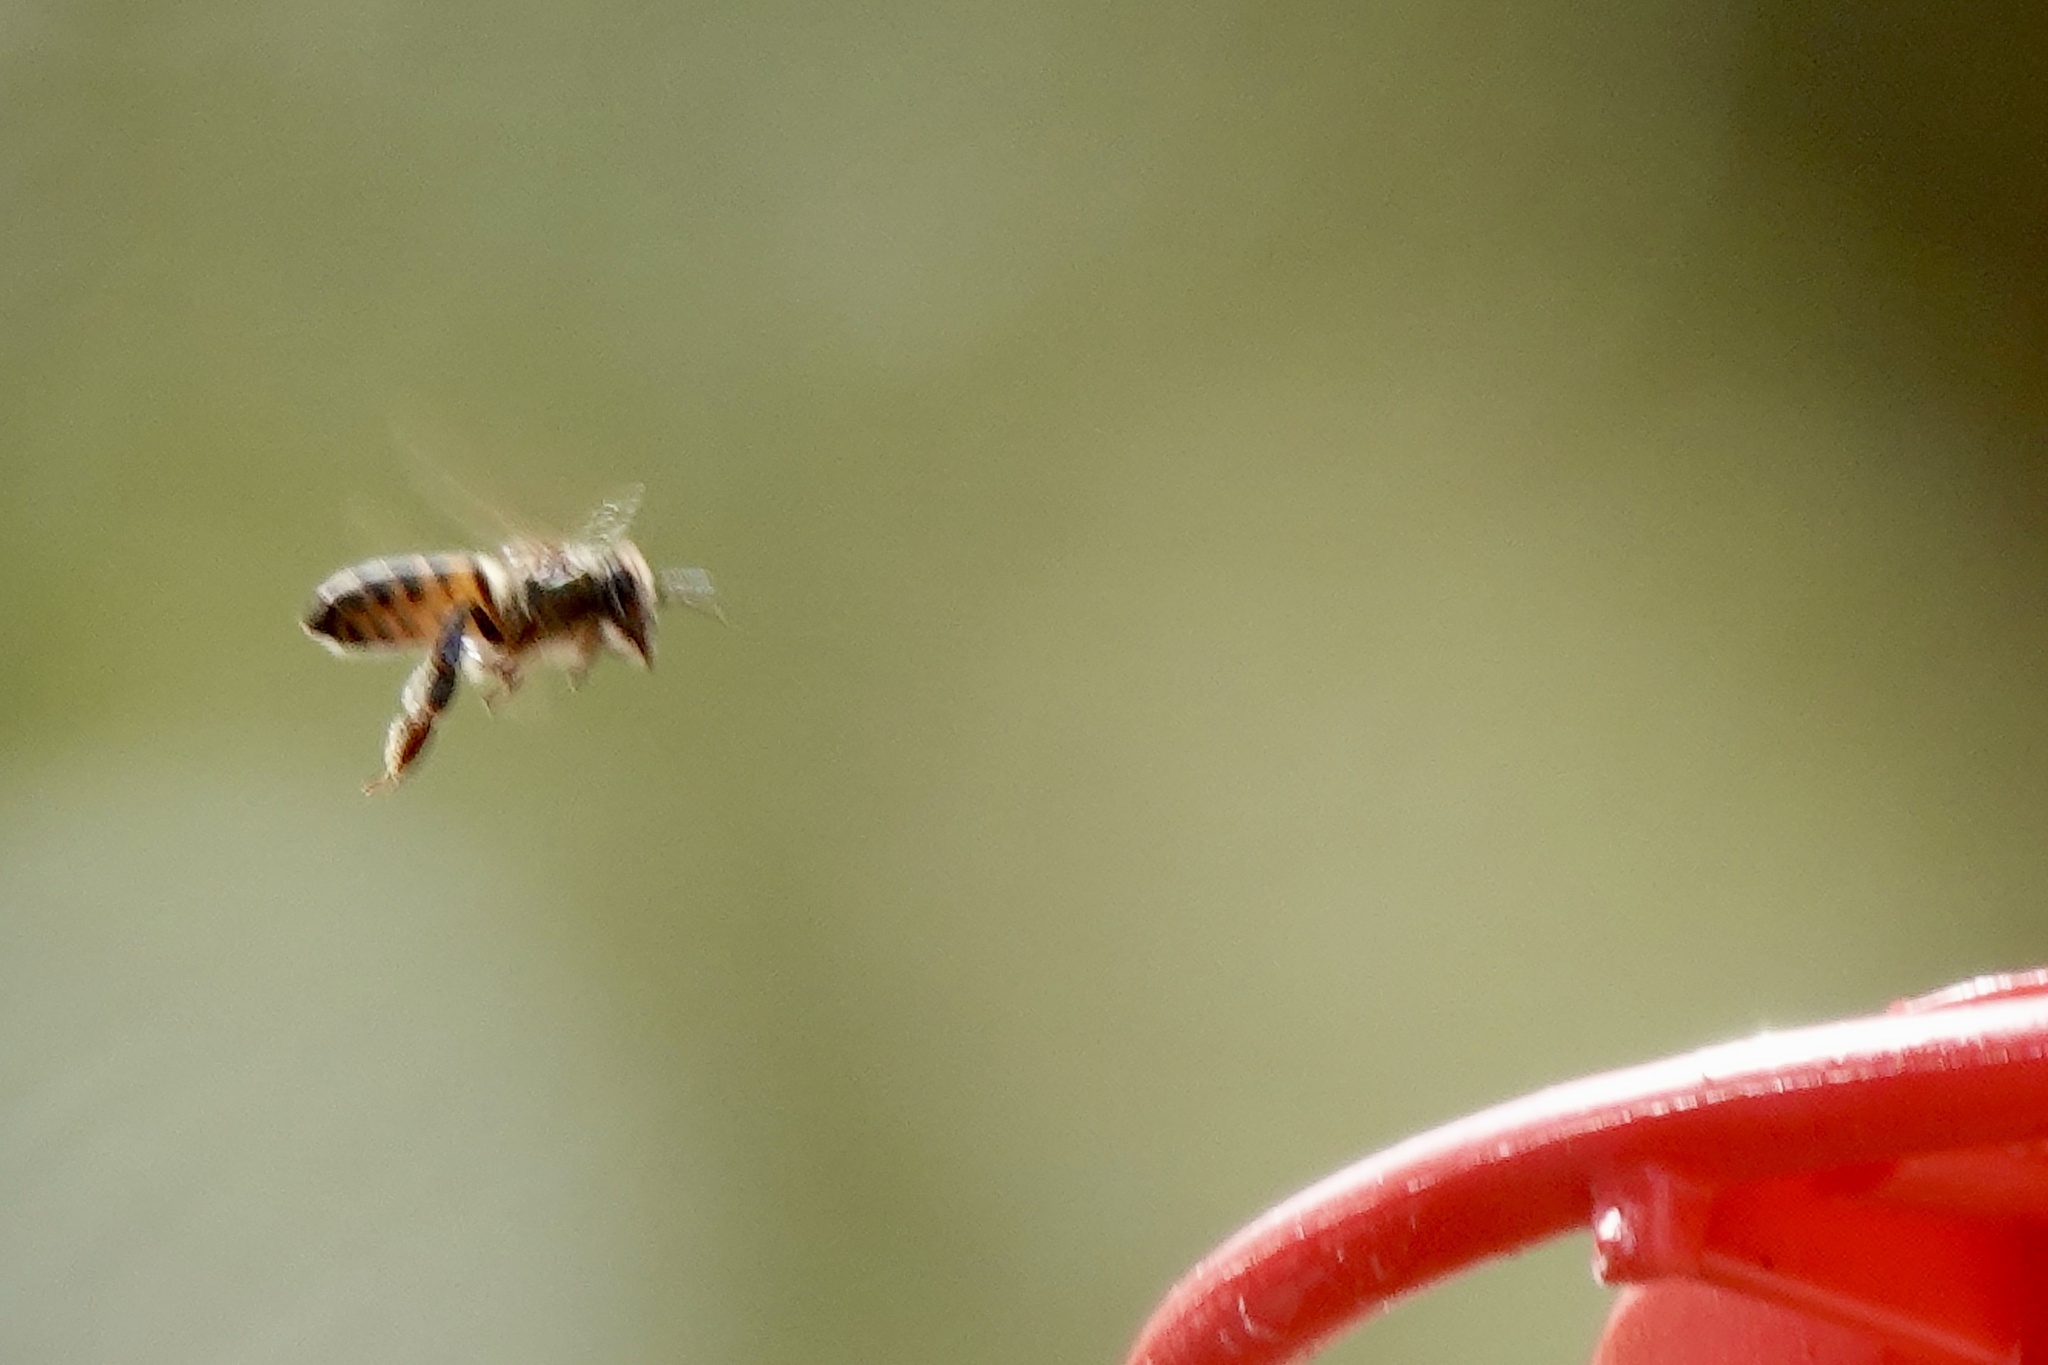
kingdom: Animalia
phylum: Arthropoda
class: Insecta
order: Hymenoptera
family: Apidae
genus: Apis
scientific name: Apis mellifera
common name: Honey bee
